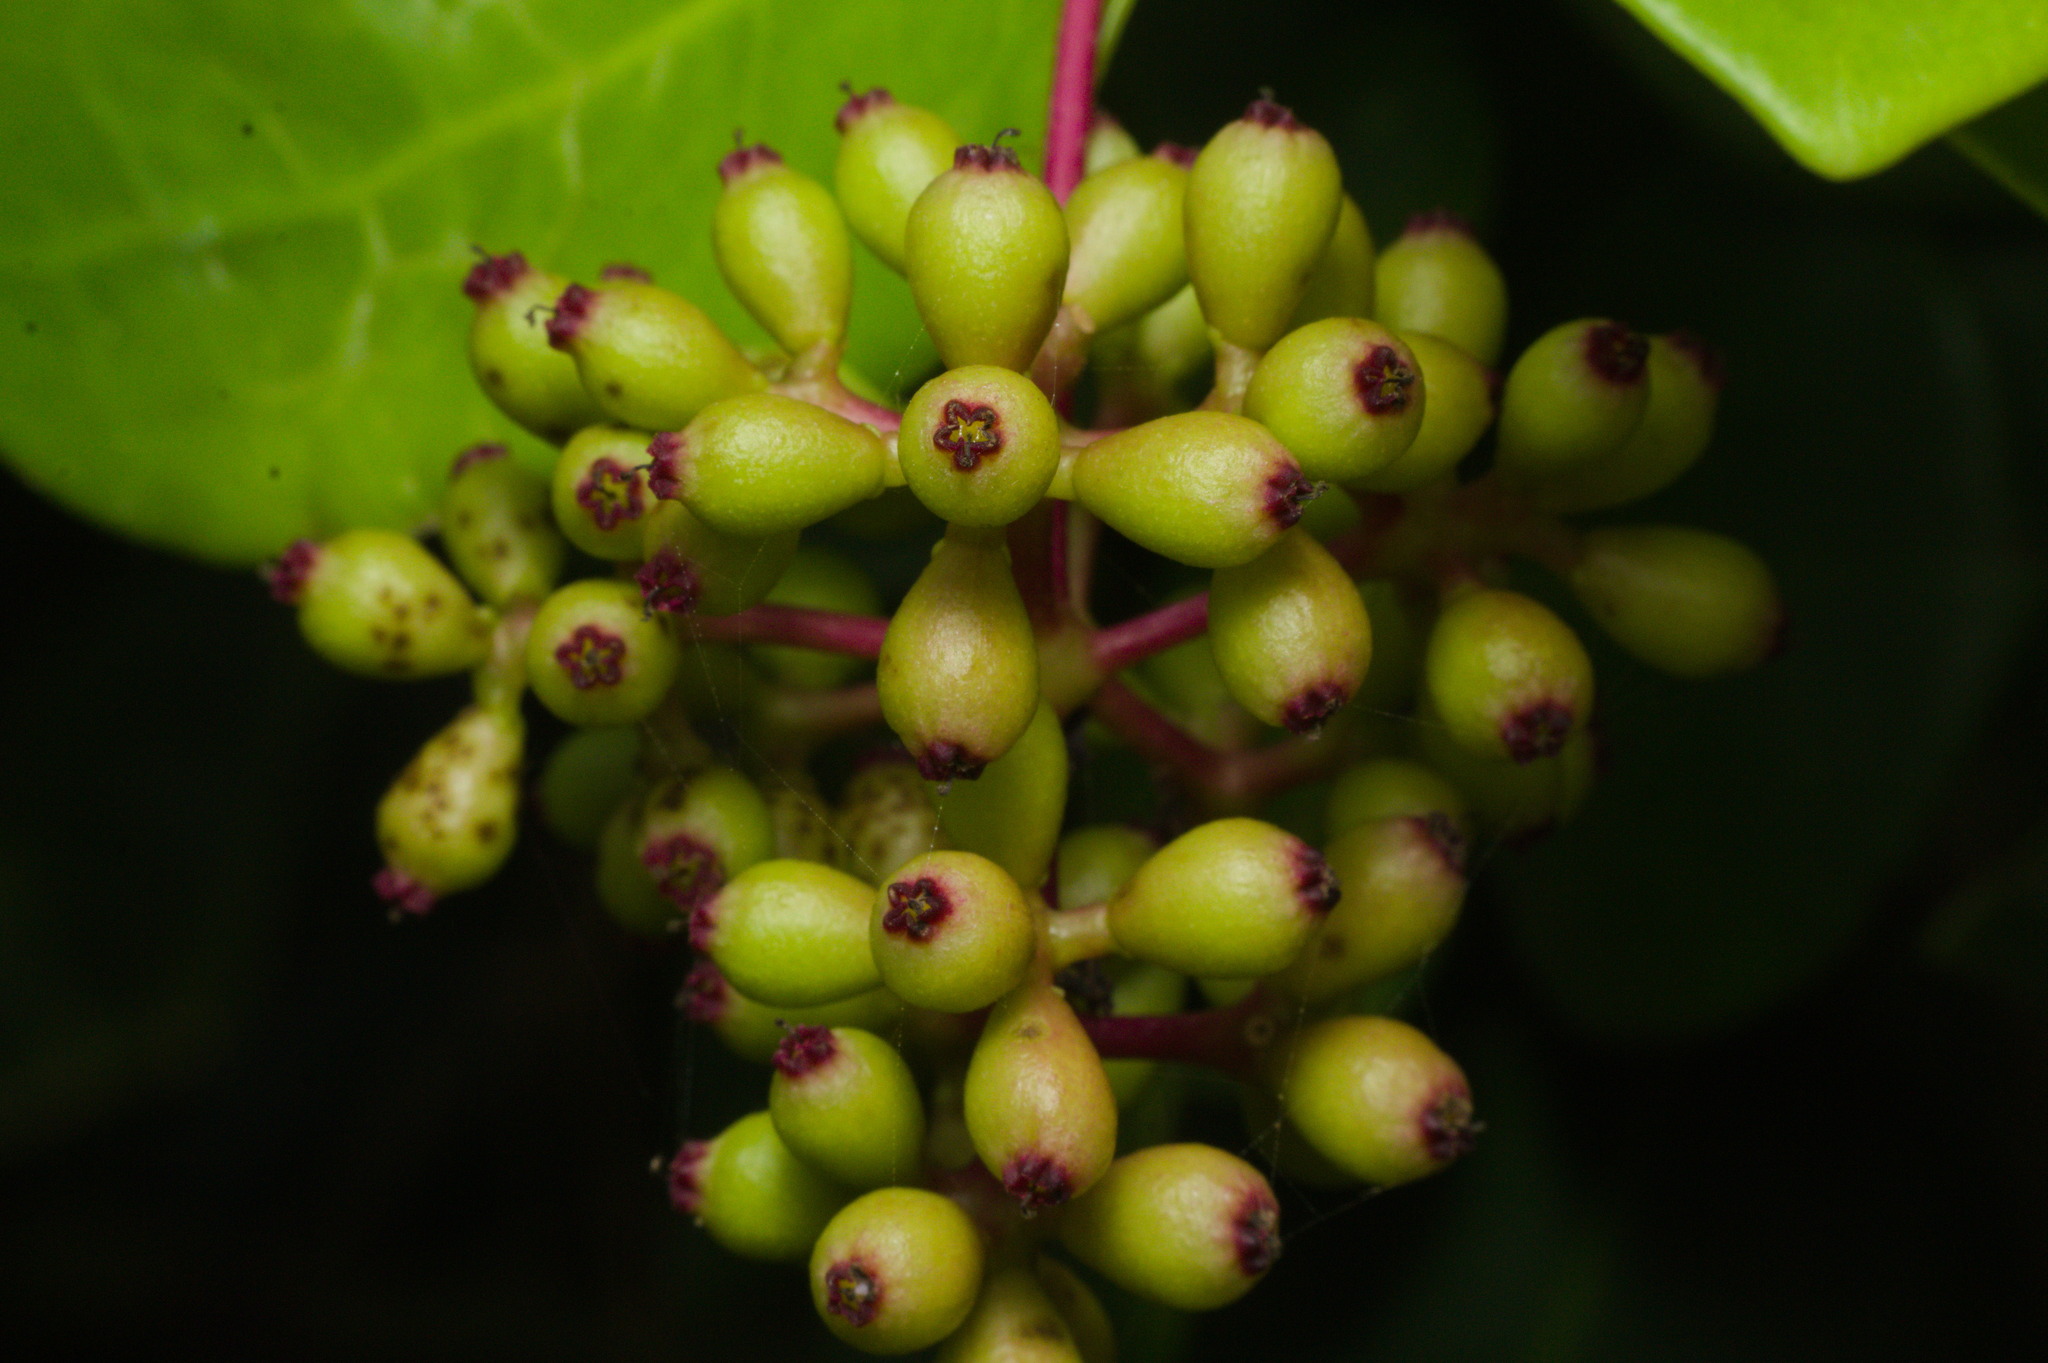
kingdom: Plantae
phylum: Tracheophyta
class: Magnoliopsida
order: Caryophyllales
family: Nyctaginaceae
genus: Guapira
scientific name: Guapira opposita
